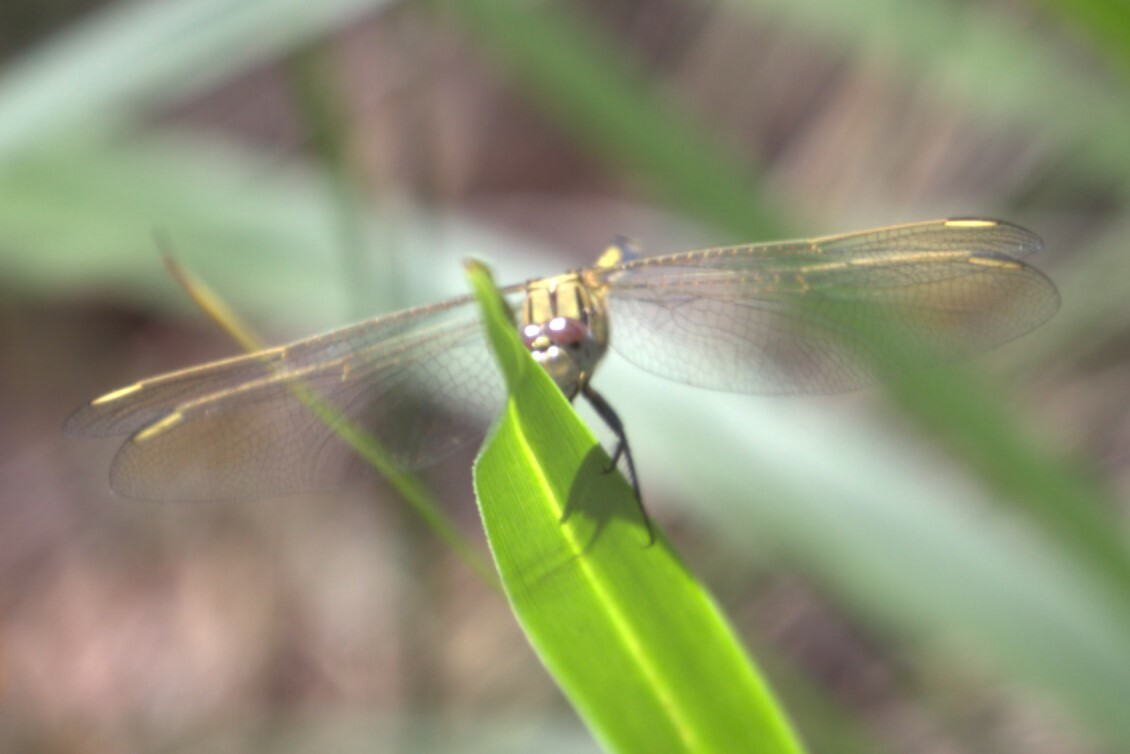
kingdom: Animalia
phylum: Arthropoda
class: Insecta
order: Odonata
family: Libellulidae
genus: Orthetrum
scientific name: Orthetrum caledonicum
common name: Blue skimmer
